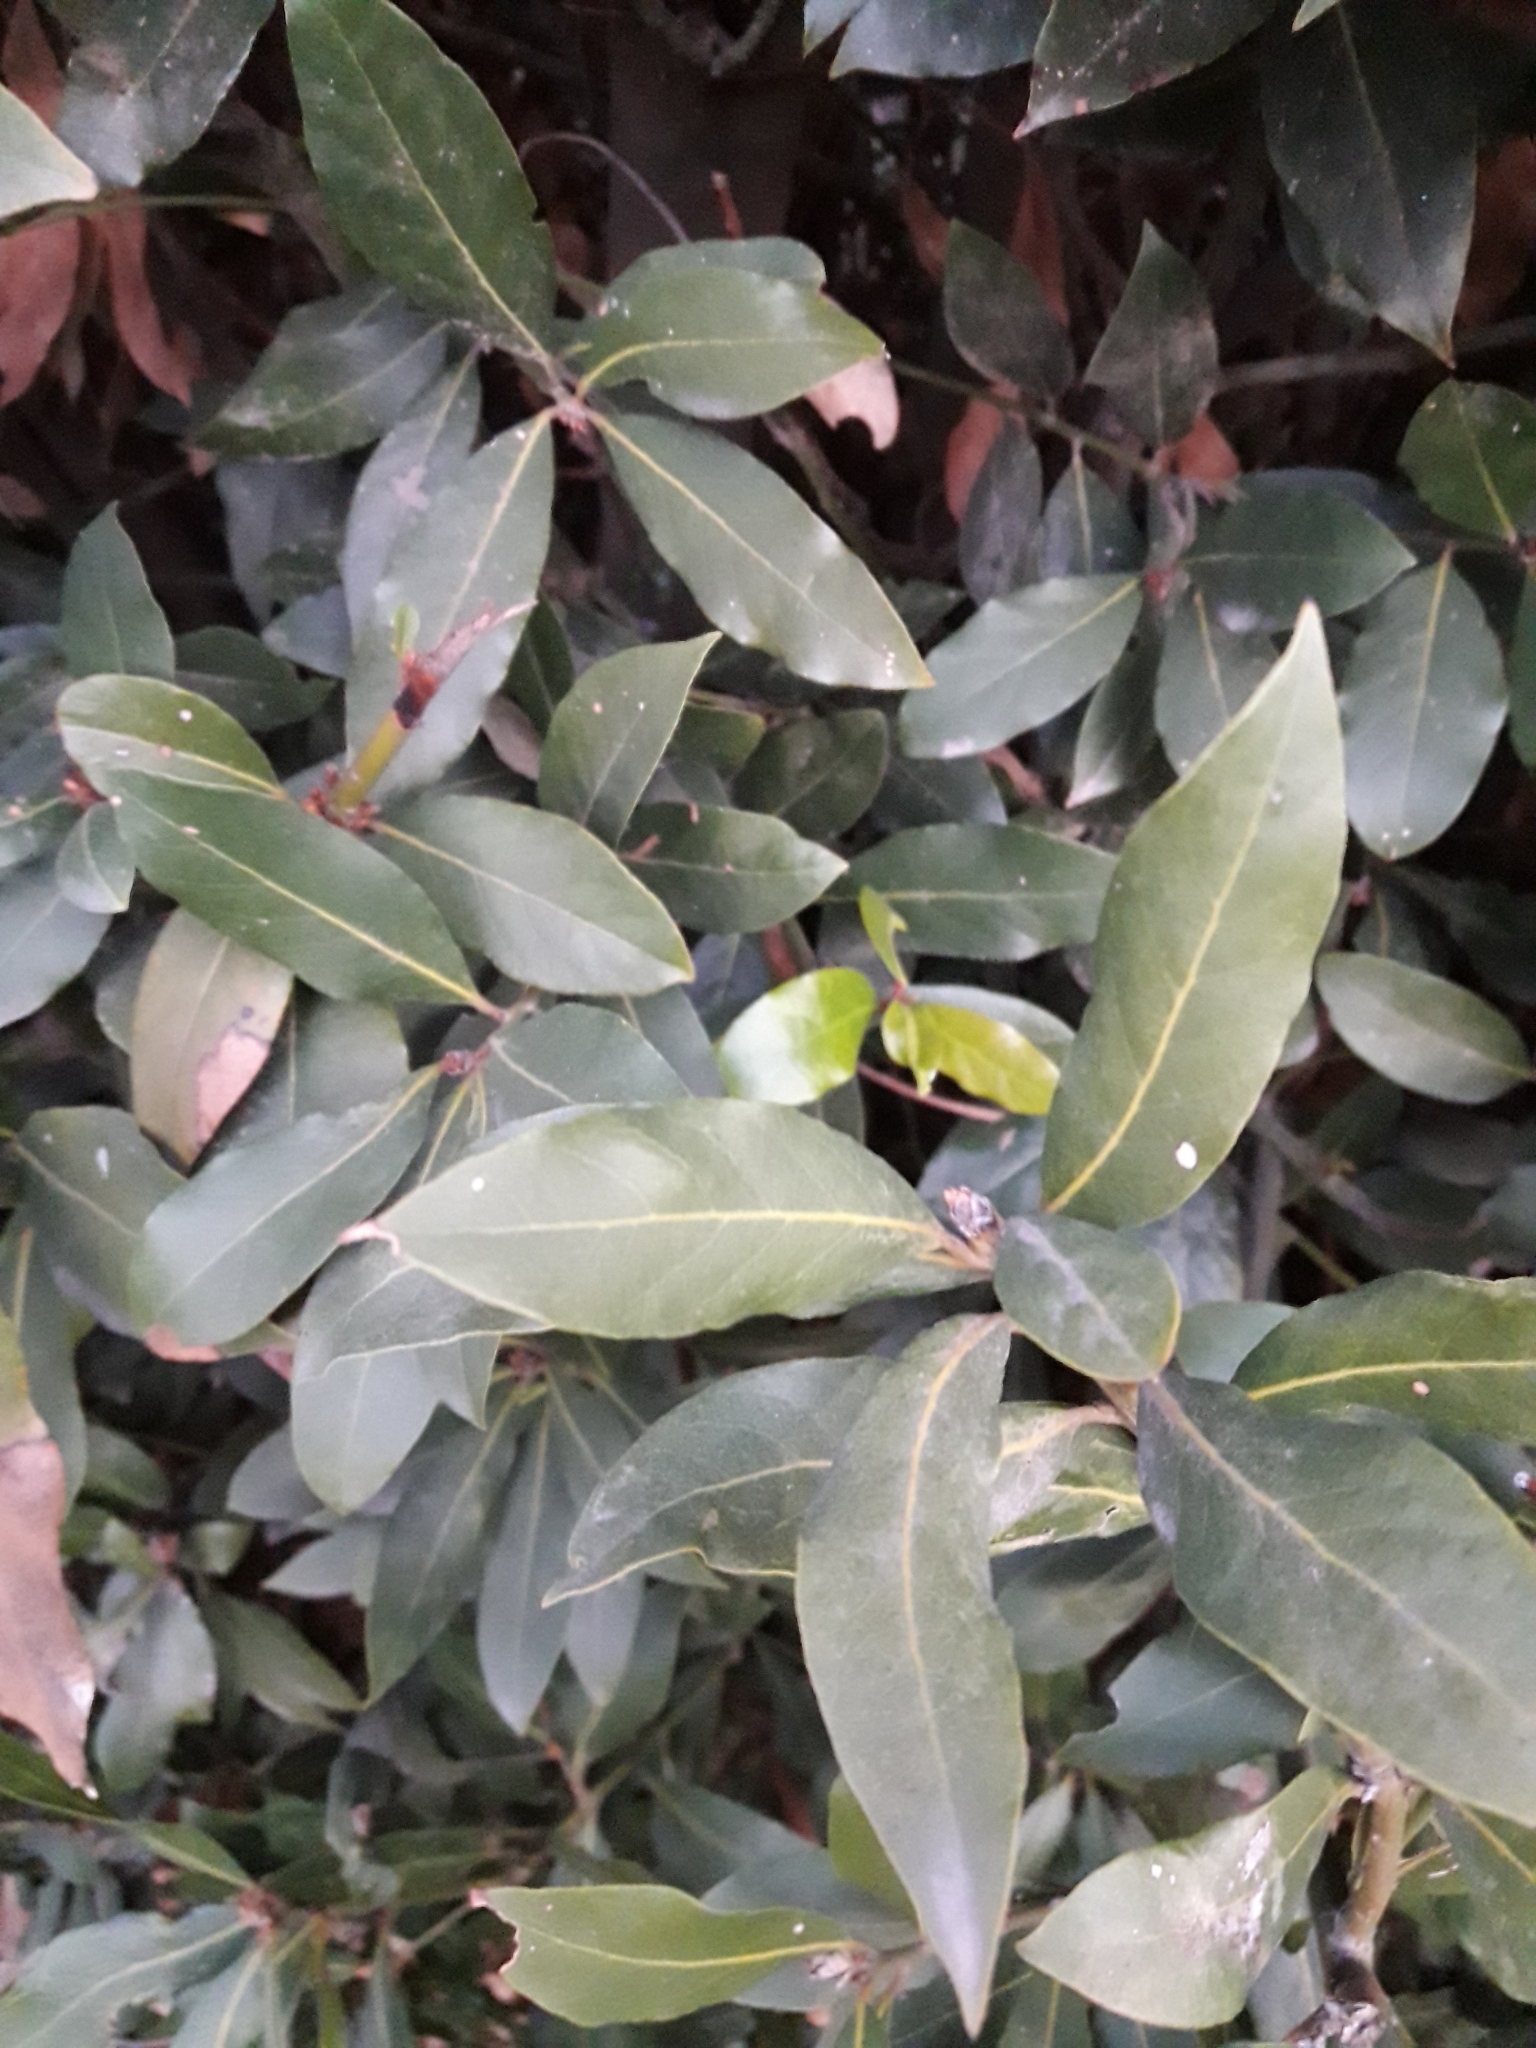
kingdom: Plantae
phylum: Tracheophyta
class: Magnoliopsida
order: Laurales
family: Lauraceae
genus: Laurus
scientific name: Laurus nobilis
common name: Bay
